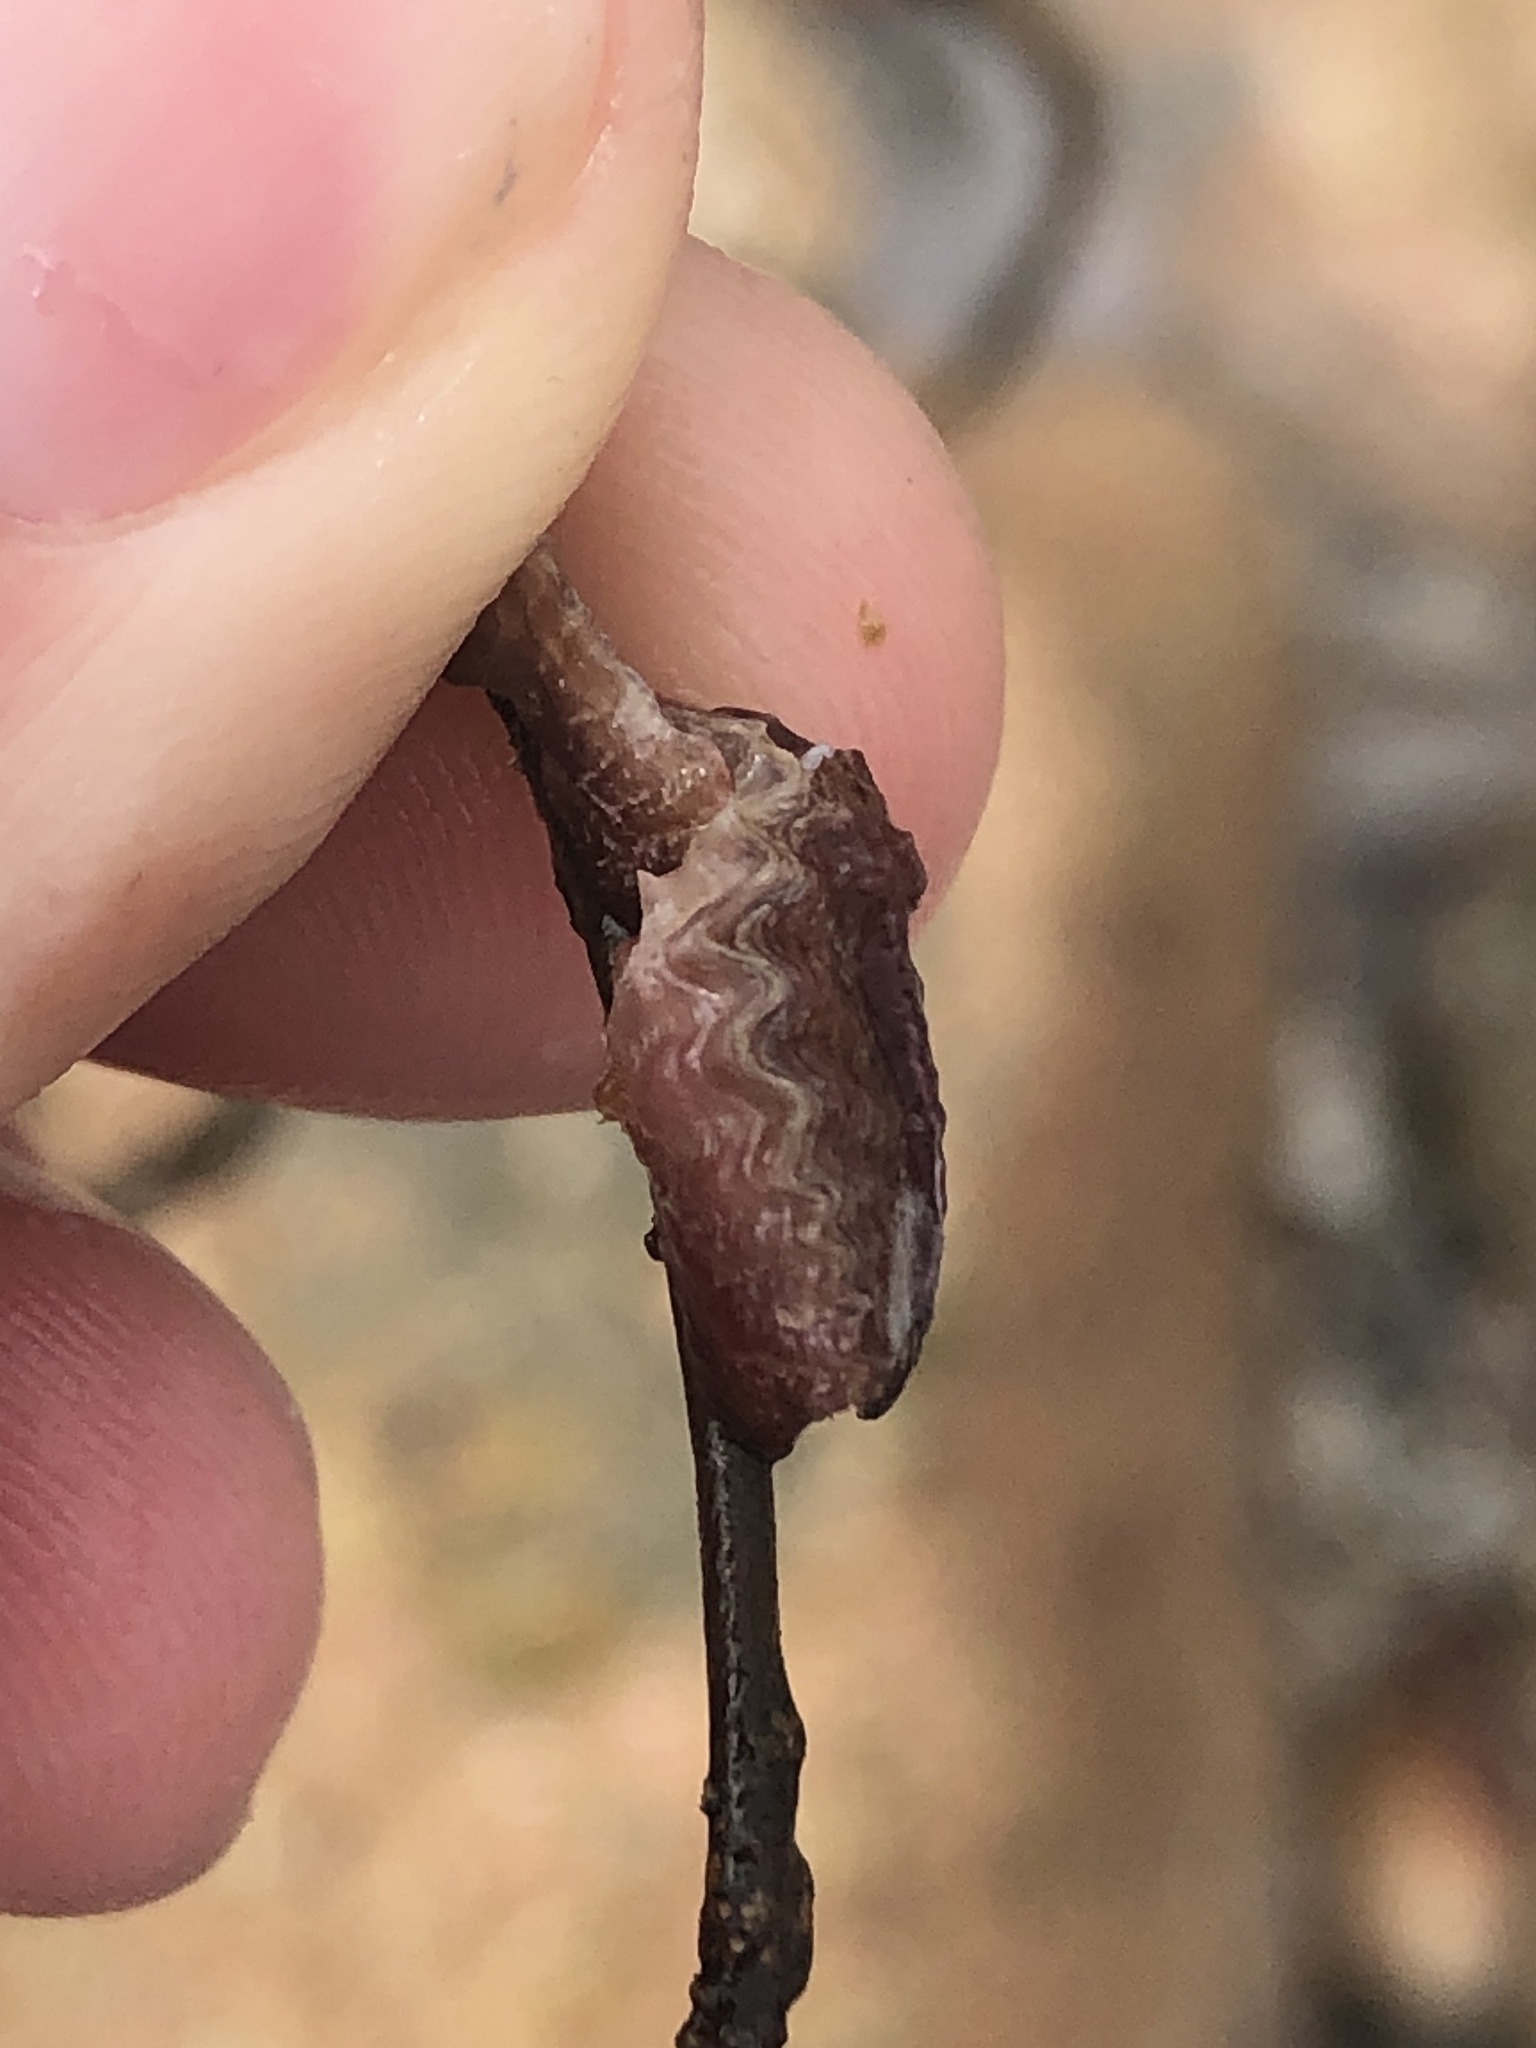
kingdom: Animalia
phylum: Mollusca
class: Bivalvia
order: Ostreida
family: Ostreidae
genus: Dendostrea
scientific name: Dendostrea frons
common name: Frond oyster
